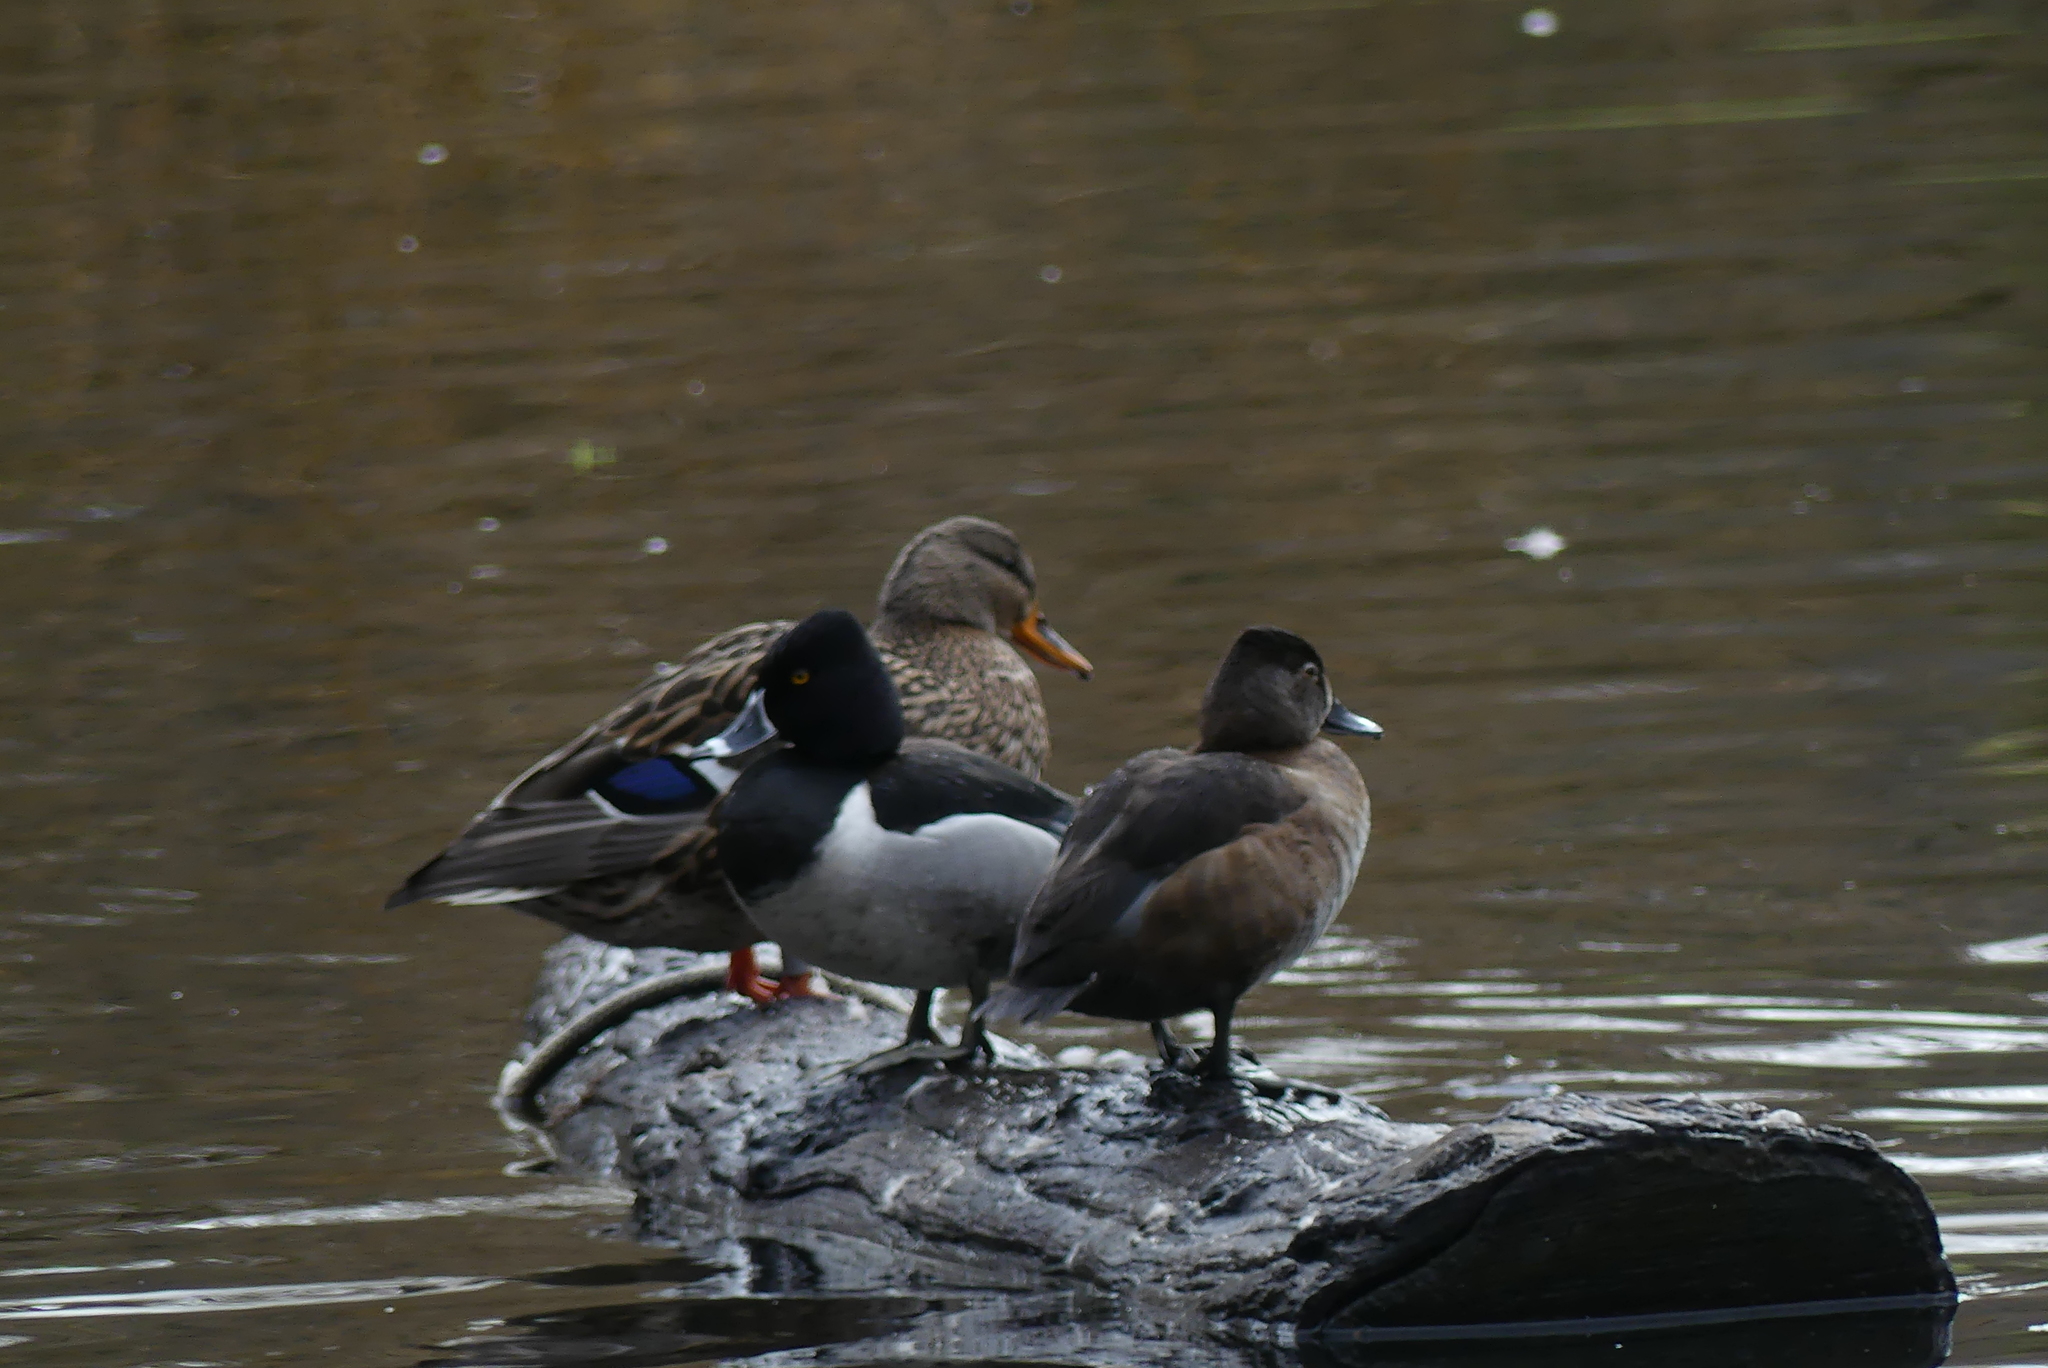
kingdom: Animalia
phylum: Chordata
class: Aves
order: Anseriformes
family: Anatidae
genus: Aythya
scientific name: Aythya collaris
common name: Ring-necked duck
